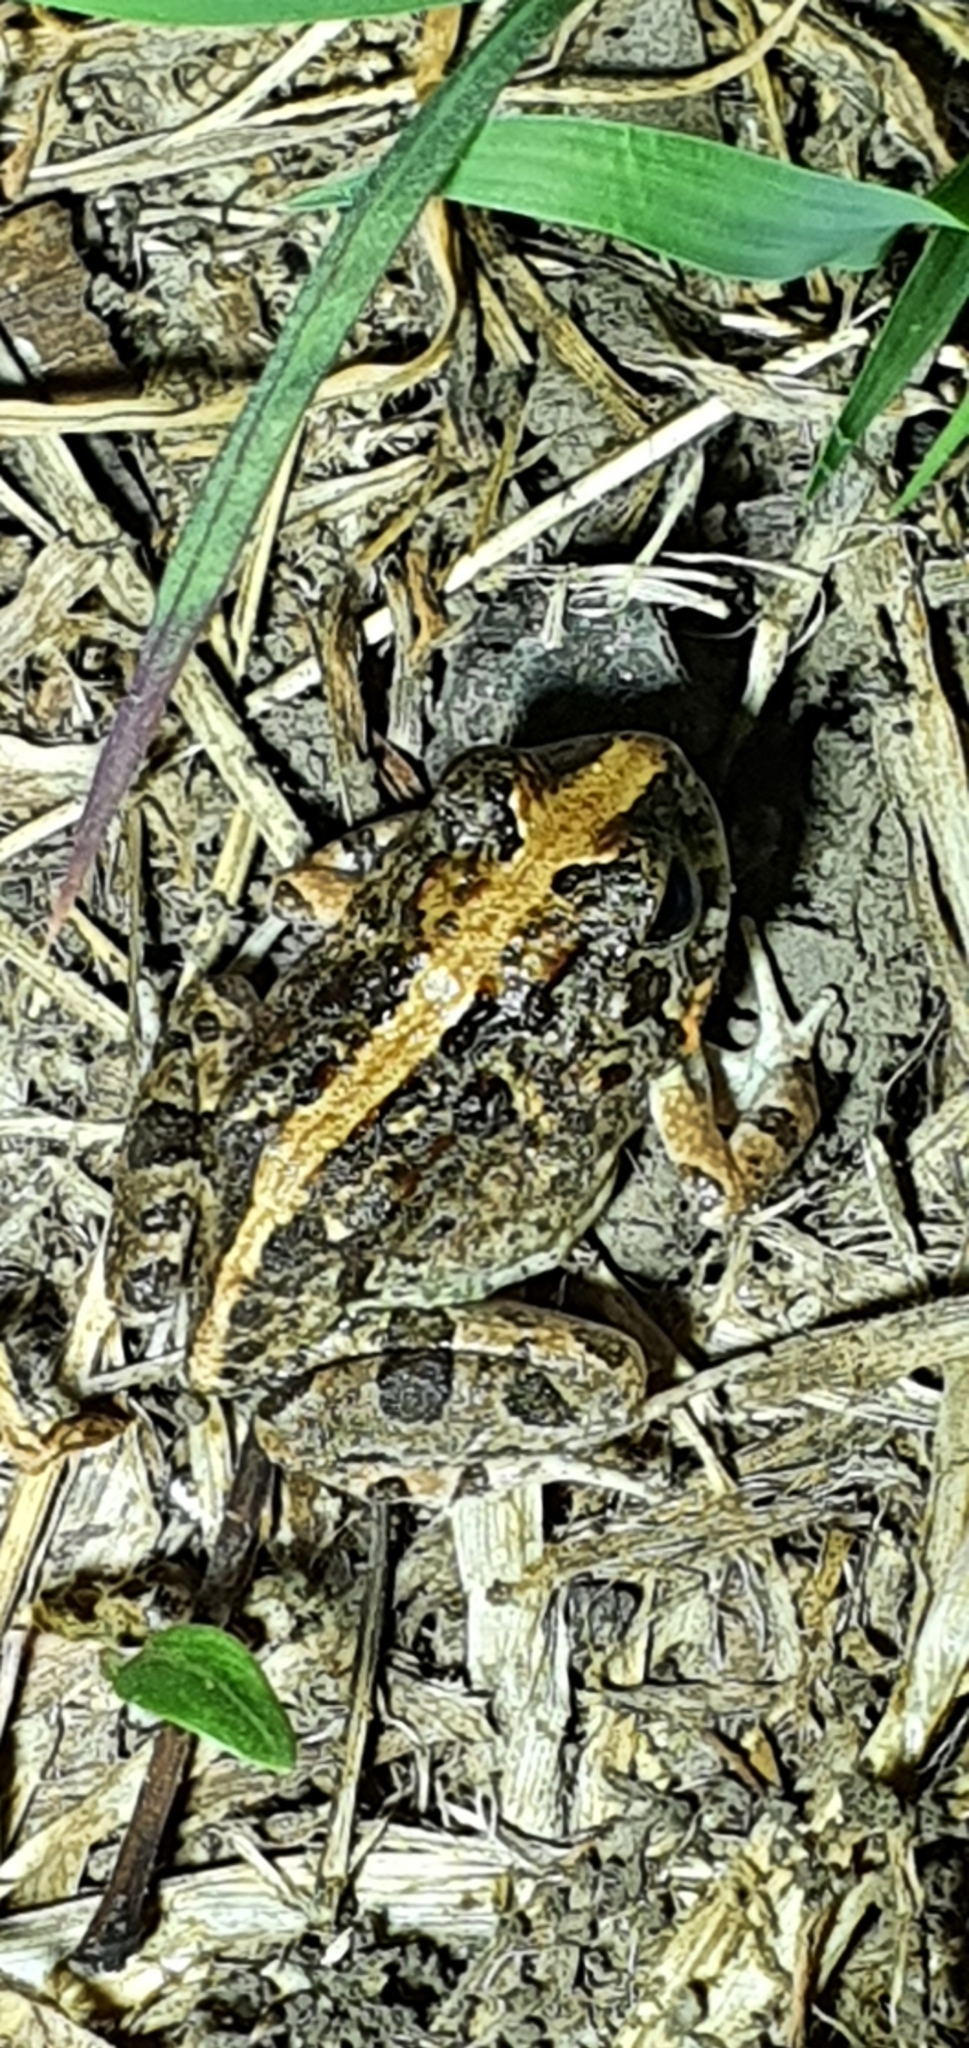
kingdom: Animalia
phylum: Chordata
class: Amphibia
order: Anura
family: Limnodynastidae
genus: Platyplectrum
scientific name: Platyplectrum ornatum
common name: Ornate burrowing frog
